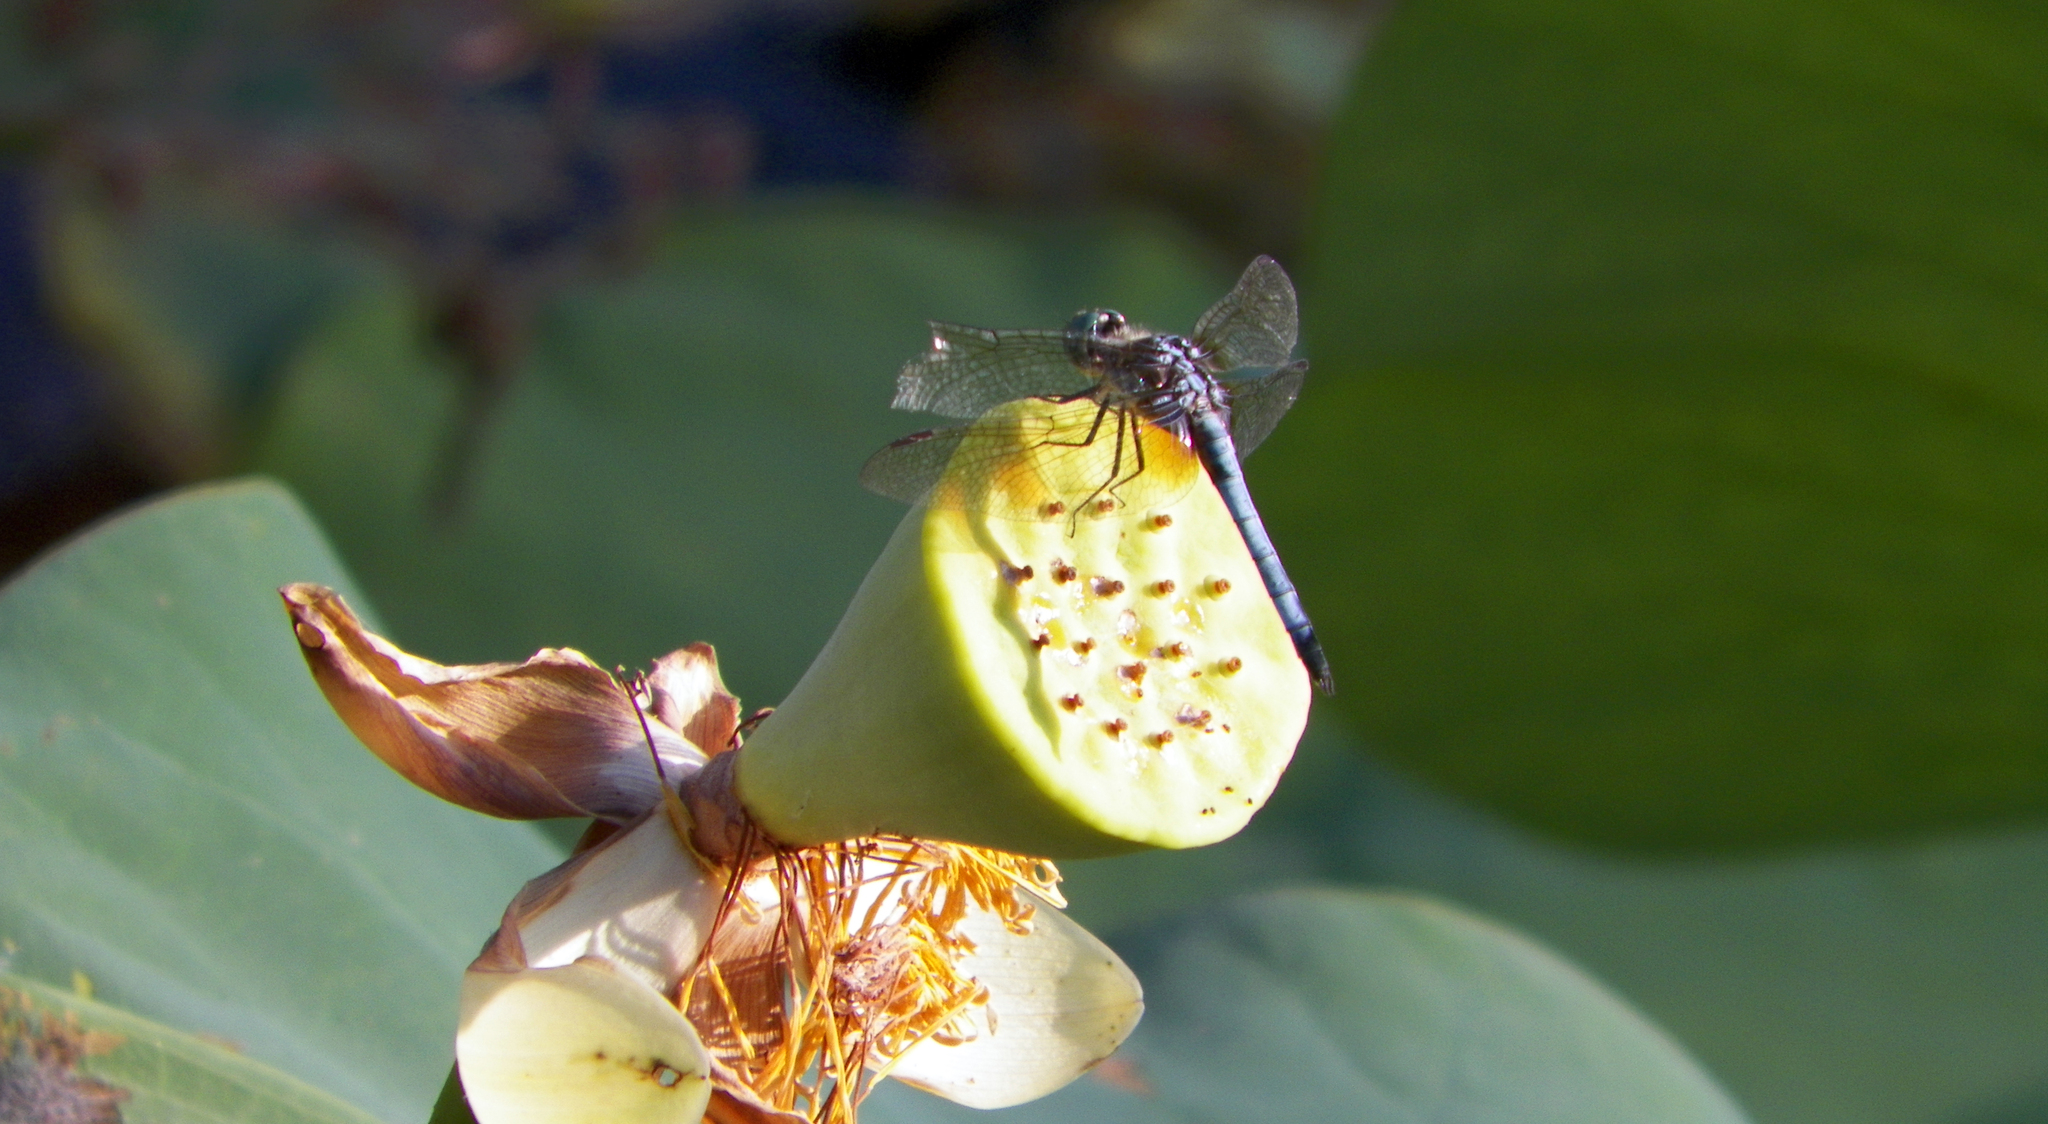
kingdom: Animalia
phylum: Arthropoda
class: Insecta
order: Odonata
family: Libellulidae
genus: Pachydiplax
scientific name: Pachydiplax longipennis
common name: Blue dasher
